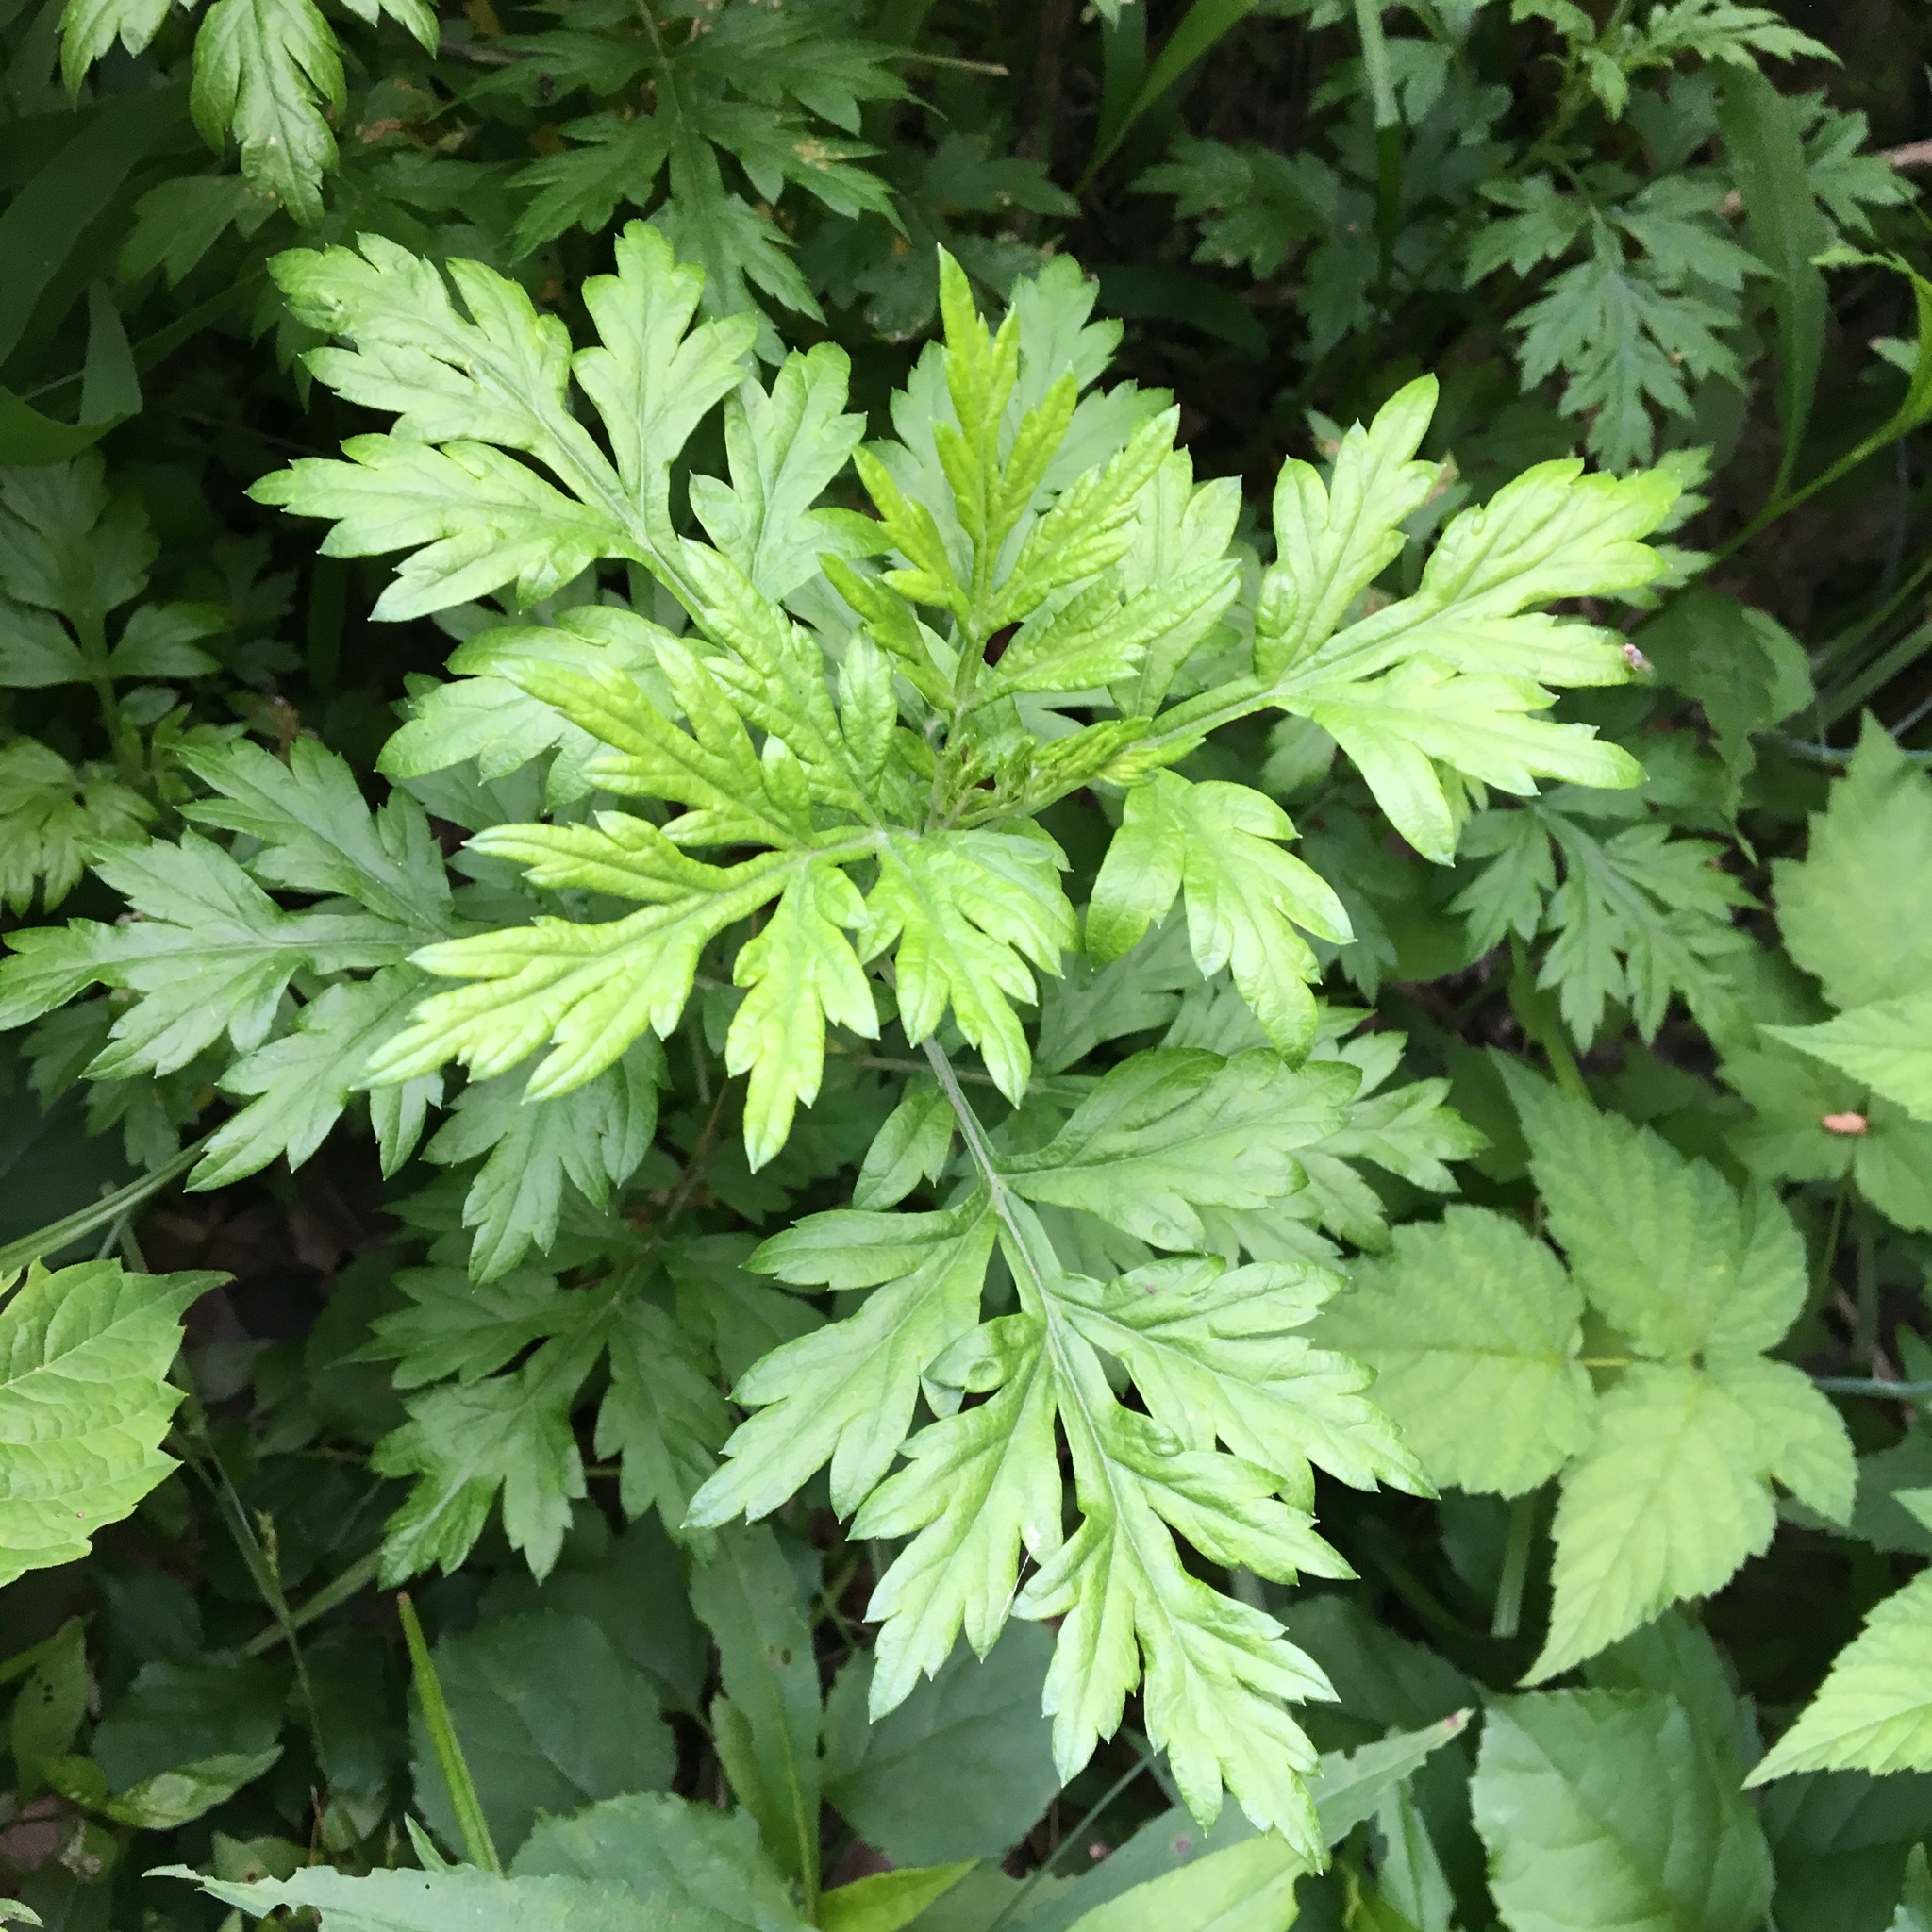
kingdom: Plantae
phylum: Tracheophyta
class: Magnoliopsida
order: Asterales
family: Asteraceae
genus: Artemisia
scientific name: Artemisia vulgaris
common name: Mugwort
